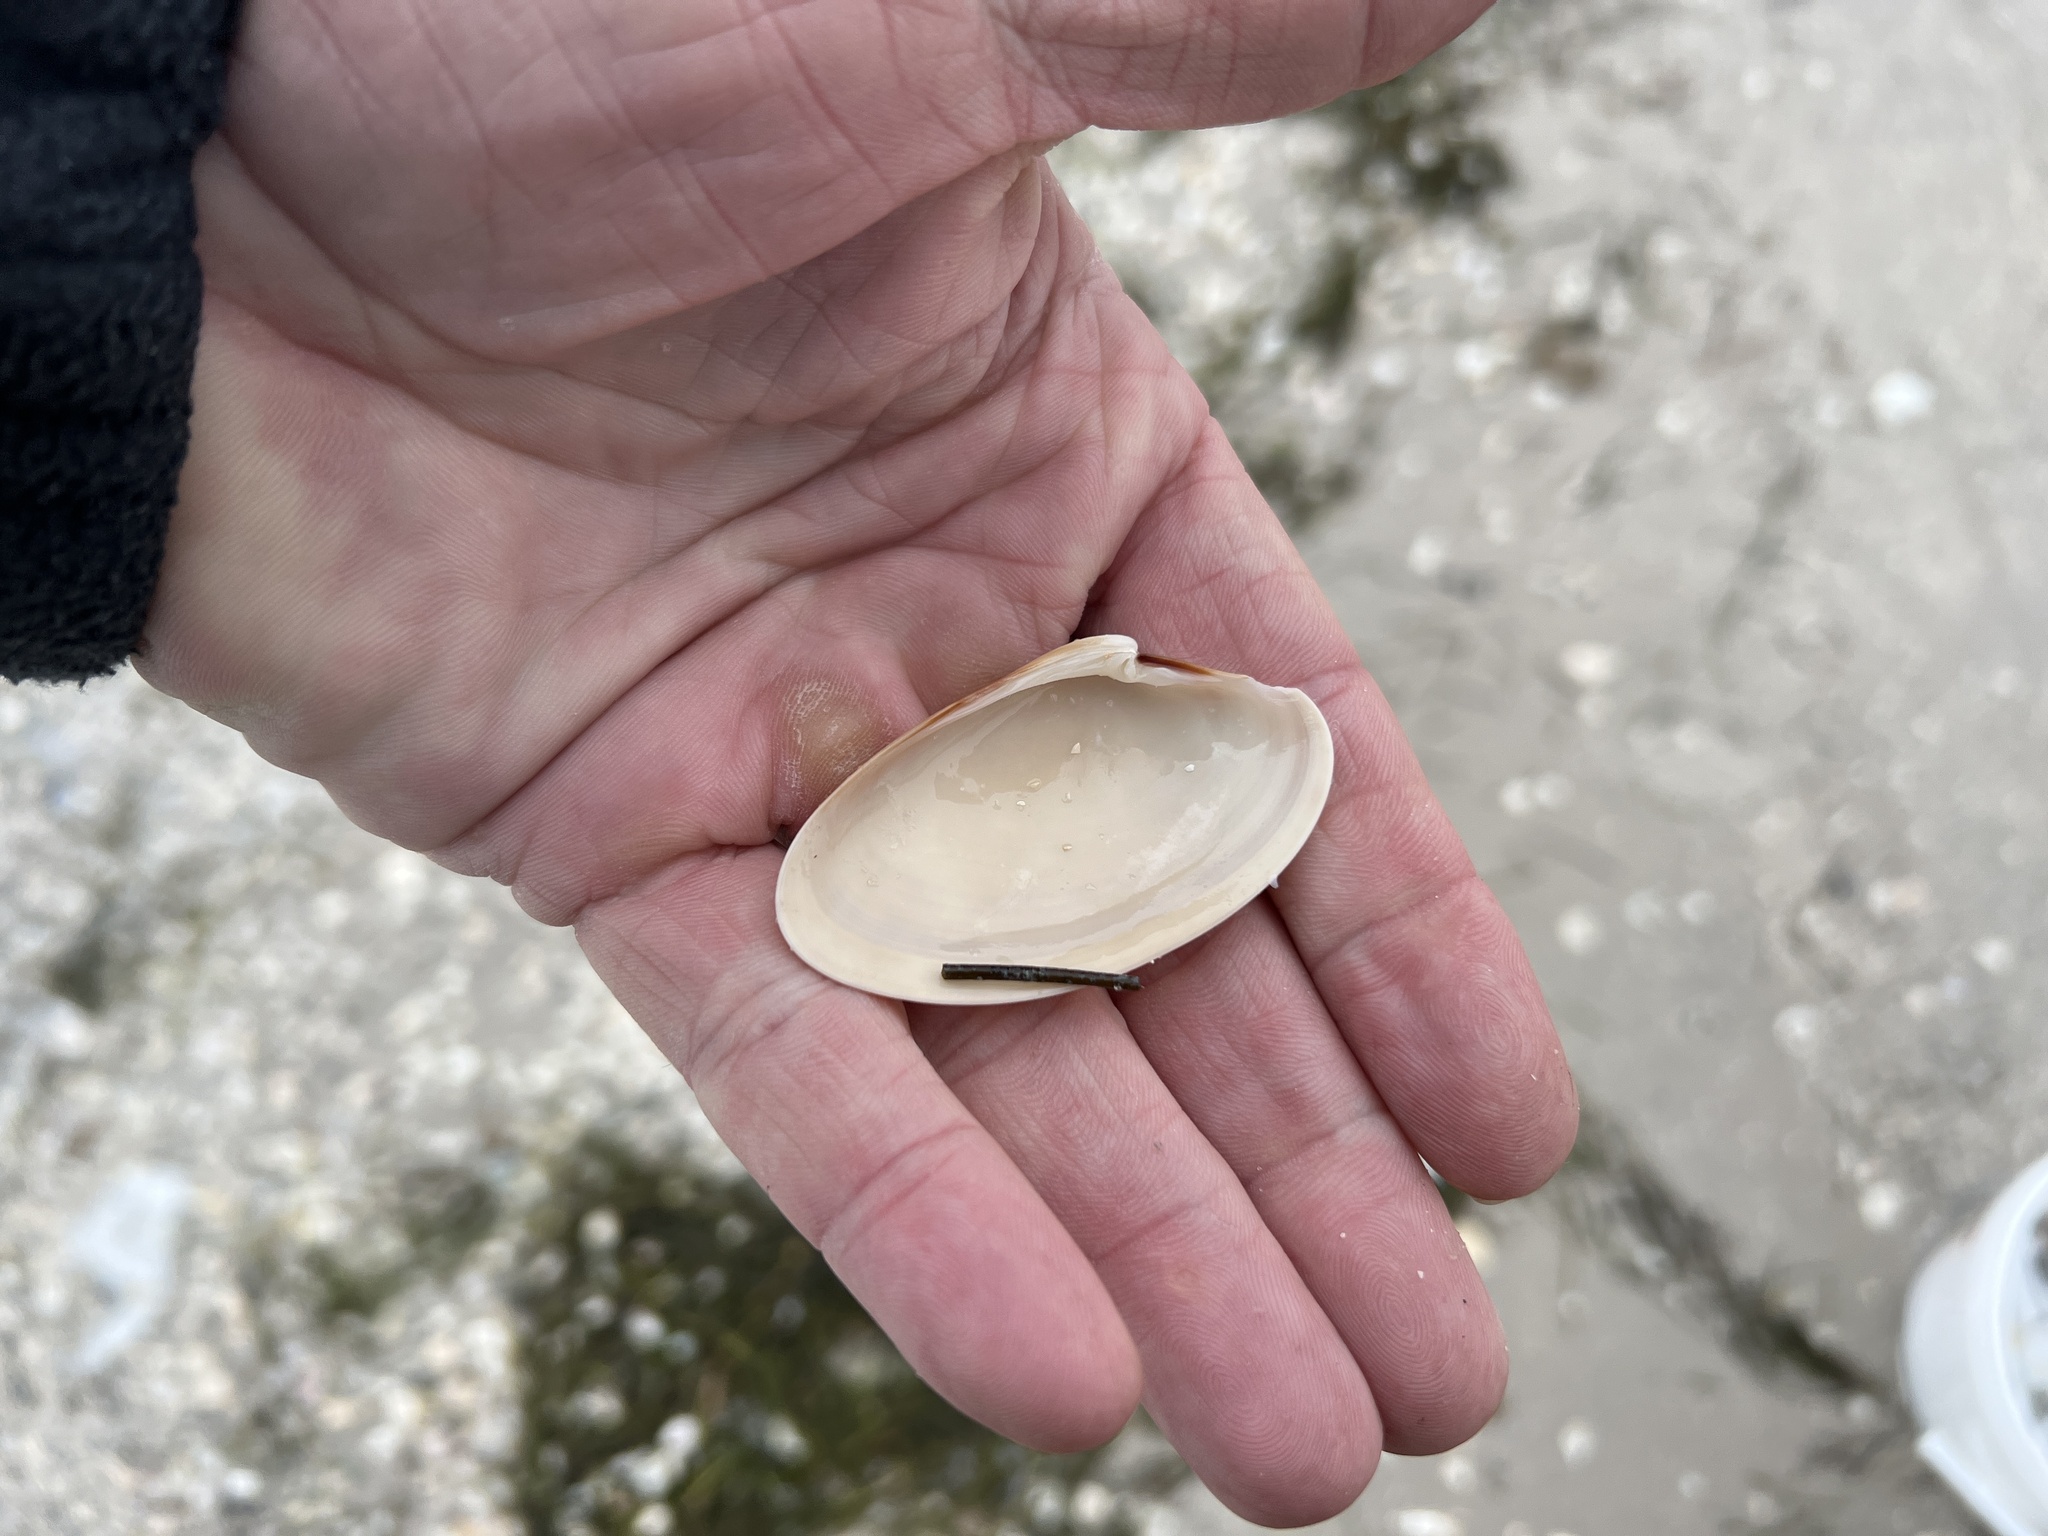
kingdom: Animalia
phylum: Mollusca
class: Bivalvia
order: Venerida
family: Veneridae
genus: Macrocallista
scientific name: Macrocallista nimbosa
